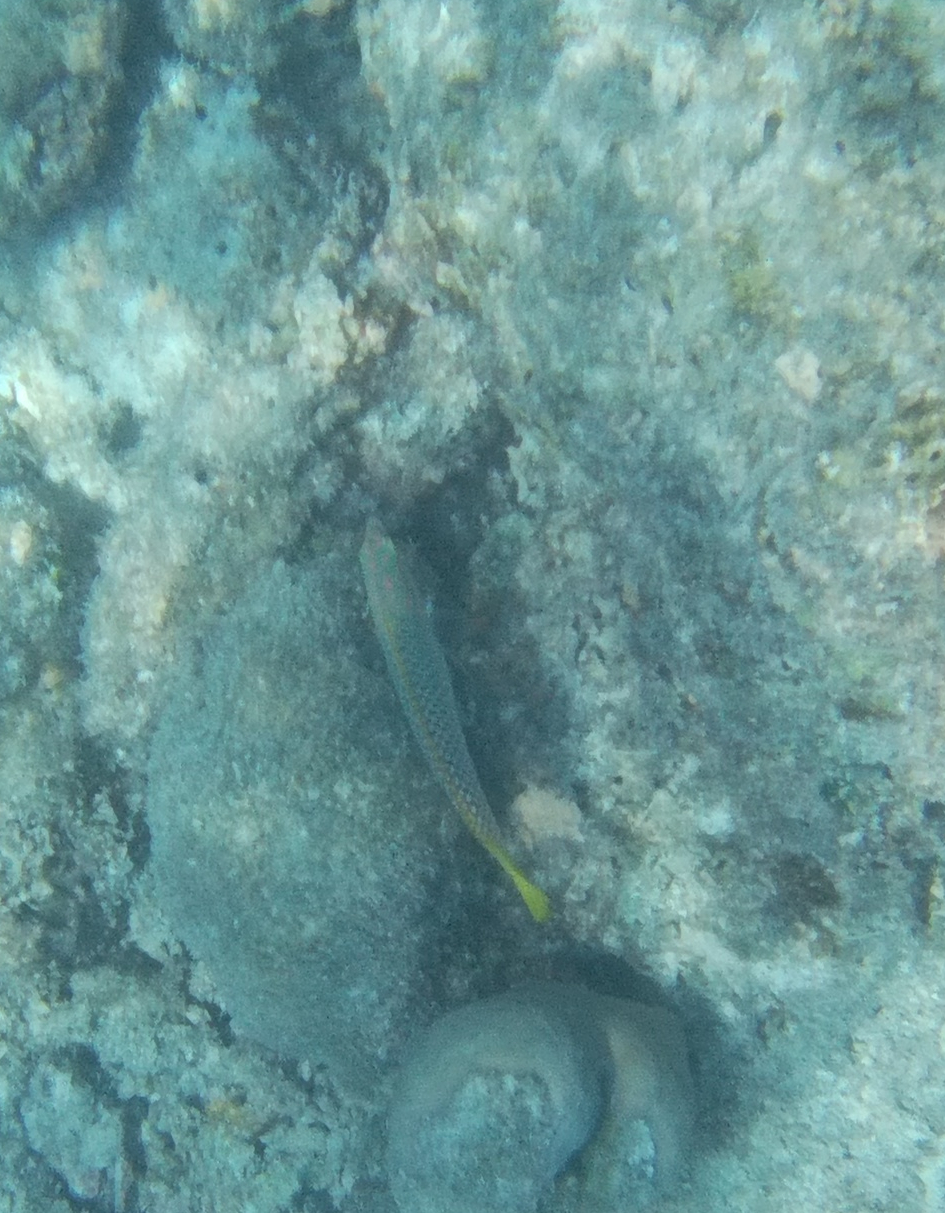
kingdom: Animalia
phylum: Chordata
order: Perciformes
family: Labridae
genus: Halichoeres
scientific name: Halichoeres hortulanus
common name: Checkerboard wrasse
